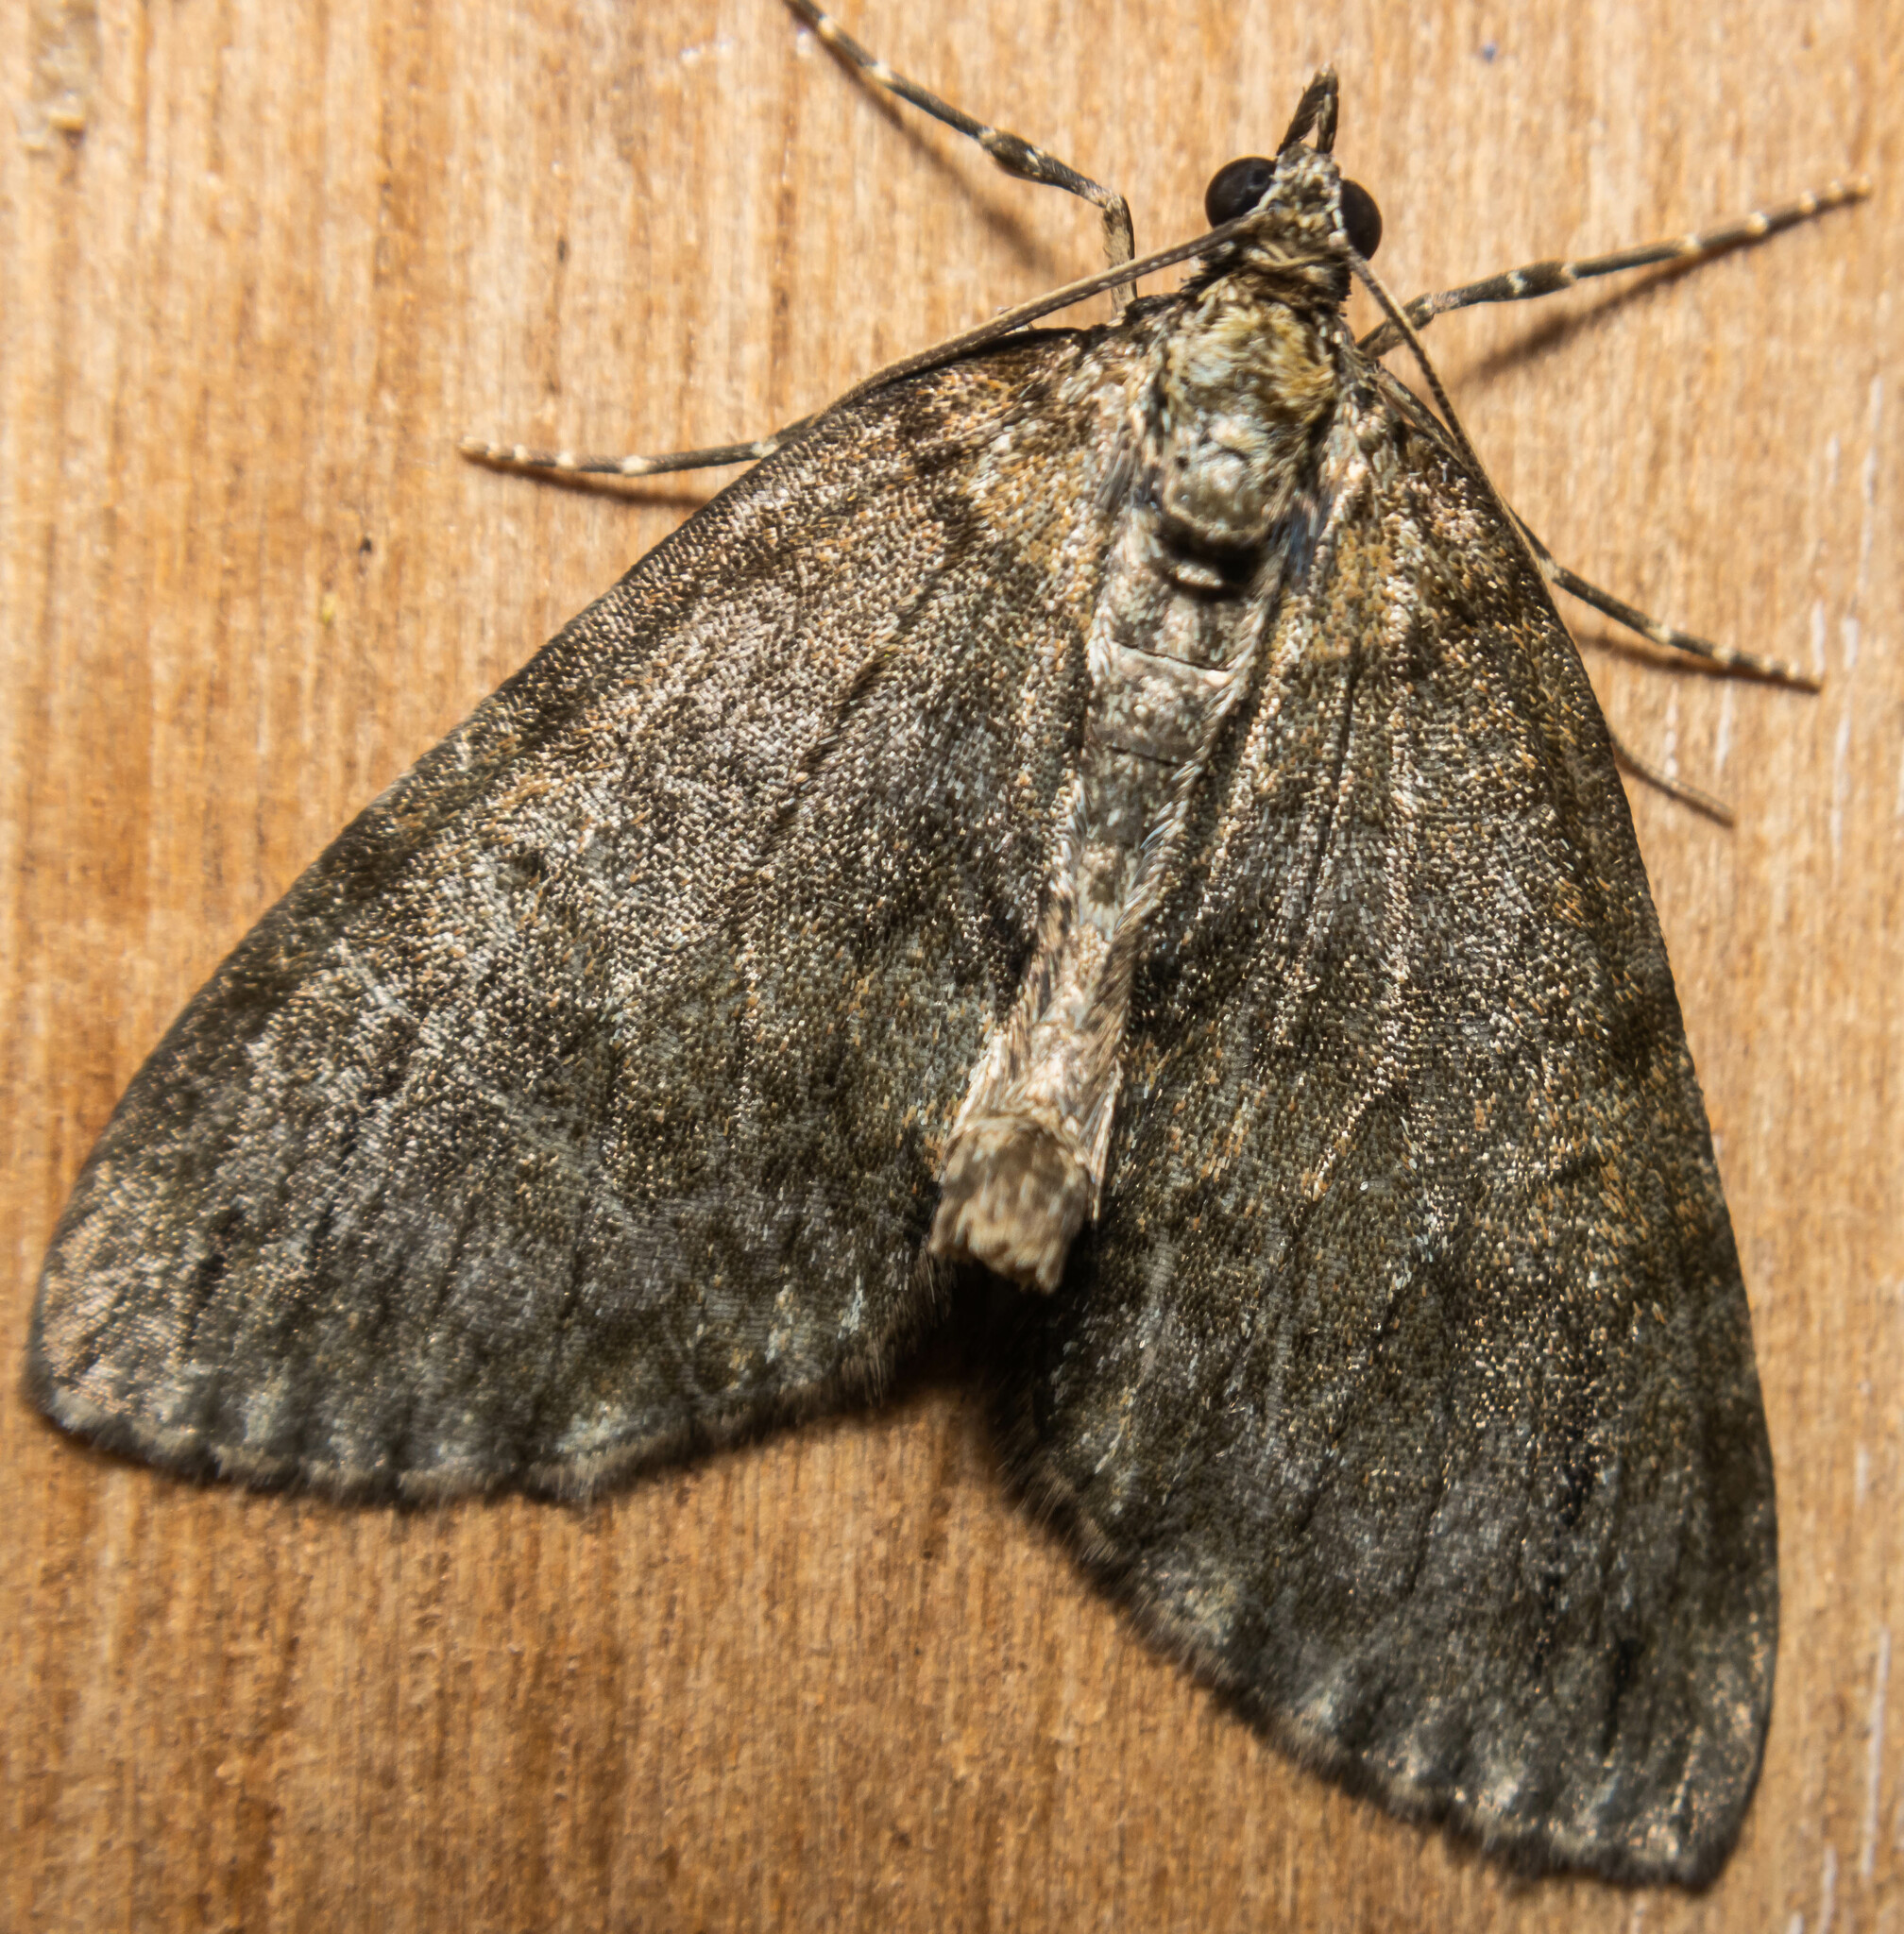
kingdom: Animalia
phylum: Arthropoda
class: Insecta
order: Lepidoptera
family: Geometridae
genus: Hydriomena
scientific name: Hydriomena impluviata
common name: May highflyer
